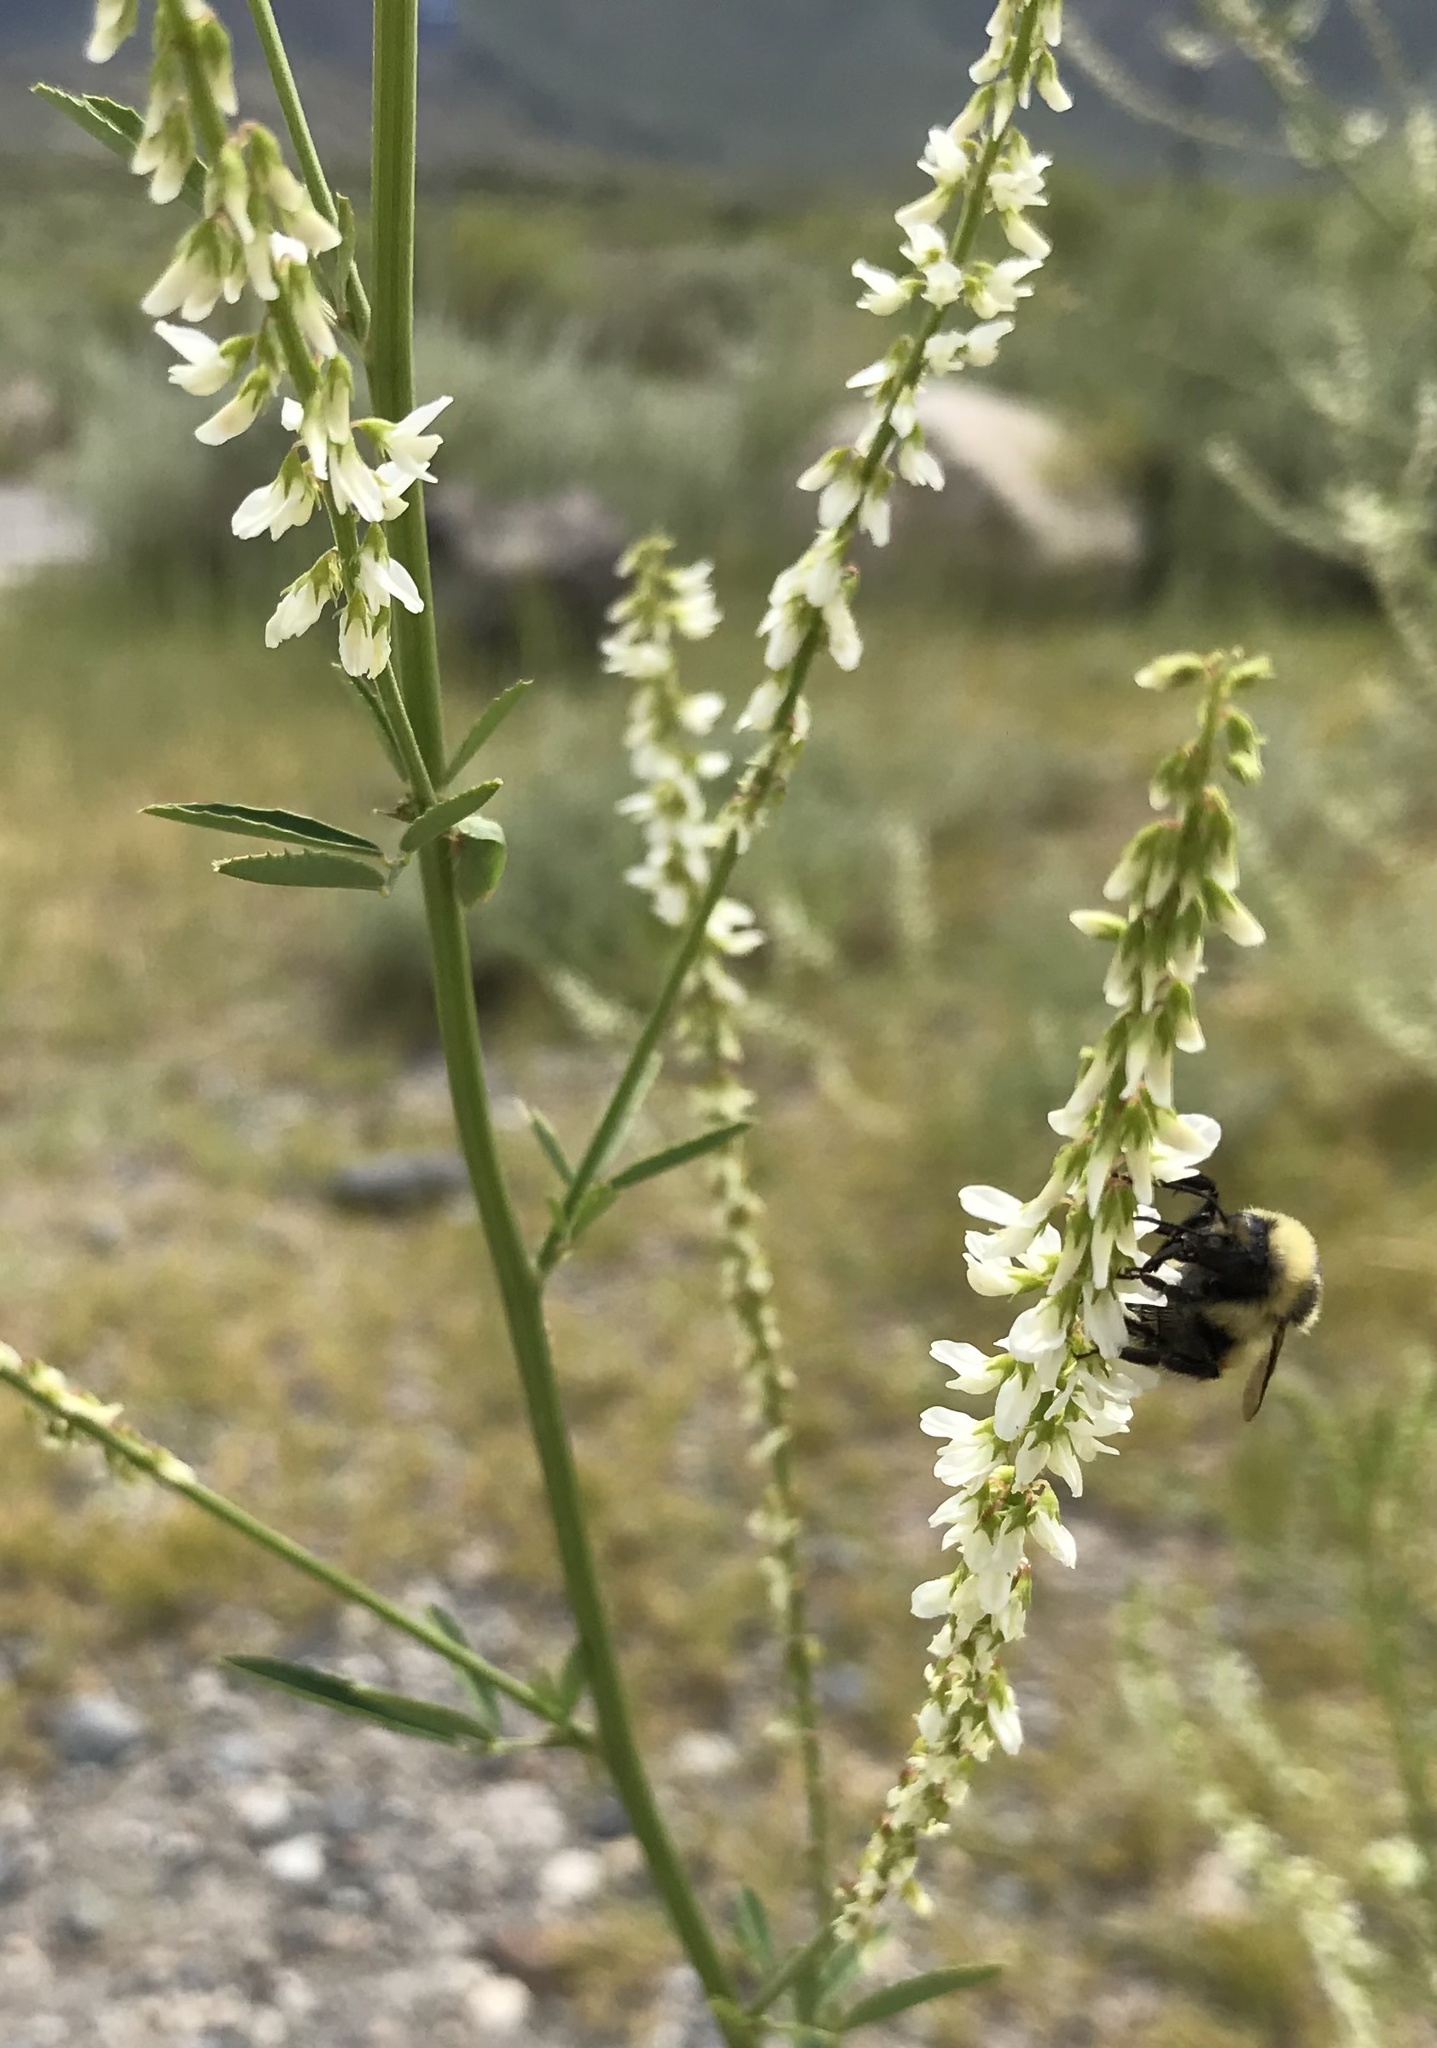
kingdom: Plantae
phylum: Tracheophyta
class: Magnoliopsida
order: Fabales
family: Fabaceae
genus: Melilotus
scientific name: Melilotus albus
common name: White melilot
